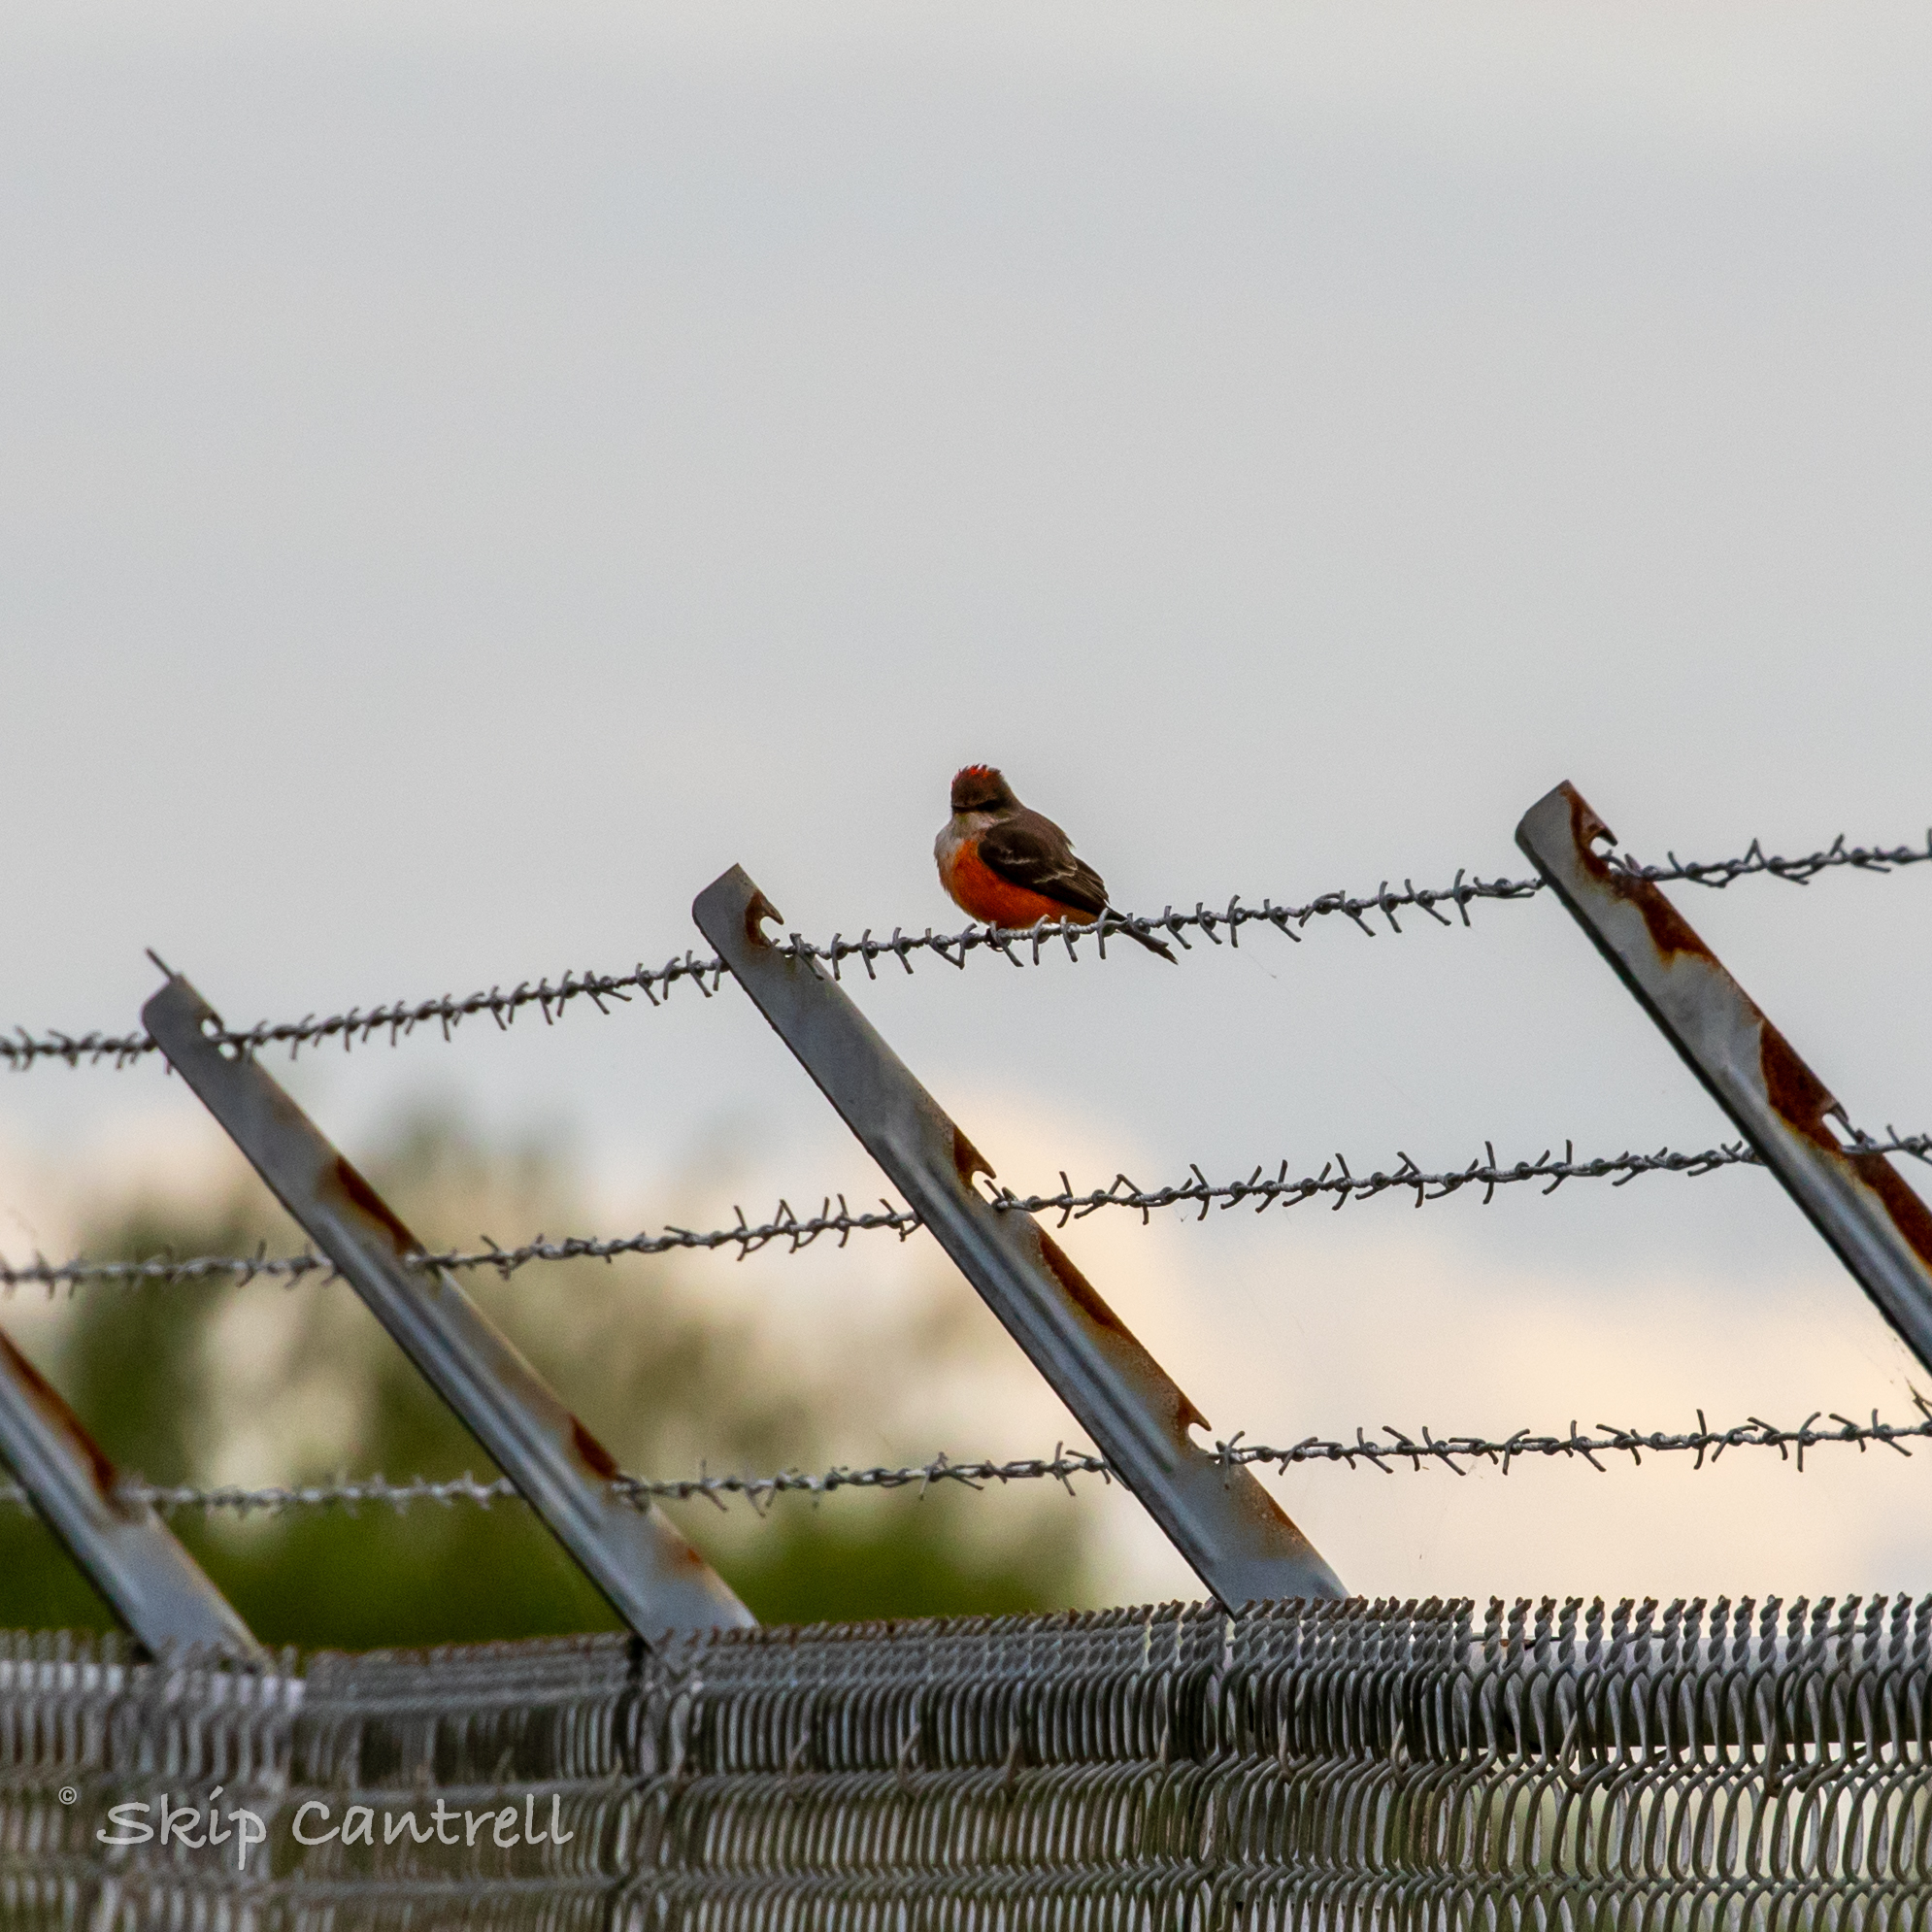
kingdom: Animalia
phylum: Chordata
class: Aves
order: Passeriformes
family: Tyrannidae
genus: Pyrocephalus
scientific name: Pyrocephalus rubinus
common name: Vermilion flycatcher
